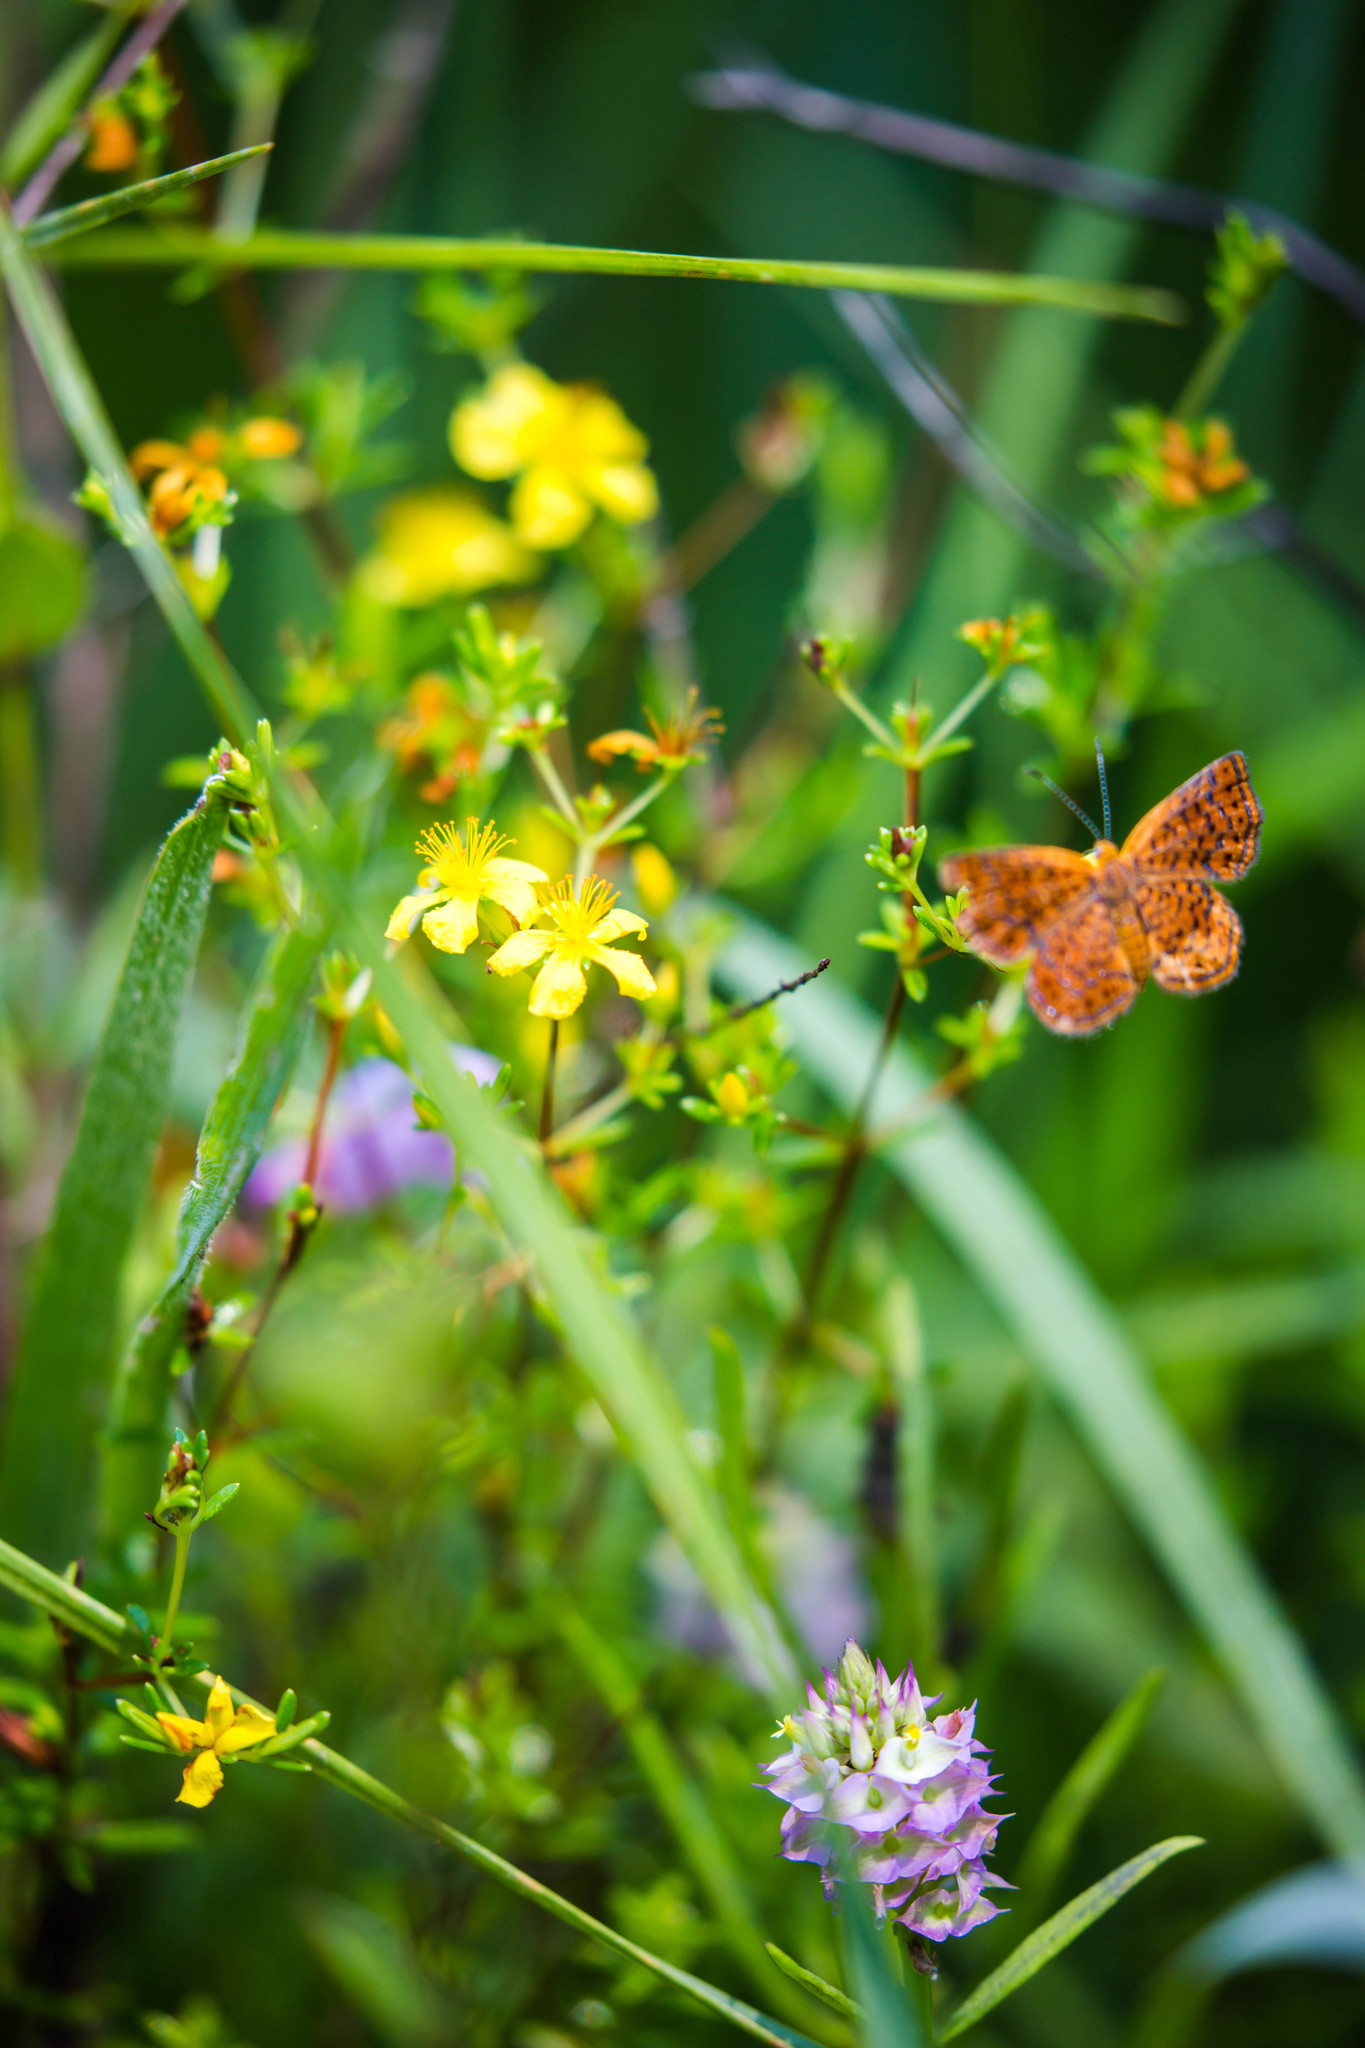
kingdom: Plantae
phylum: Tracheophyta
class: Magnoliopsida
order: Malpighiales
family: Hypericaceae
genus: Hypericum
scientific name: Hypericum brachyphyllum
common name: Coastal plain st. john's-wort
